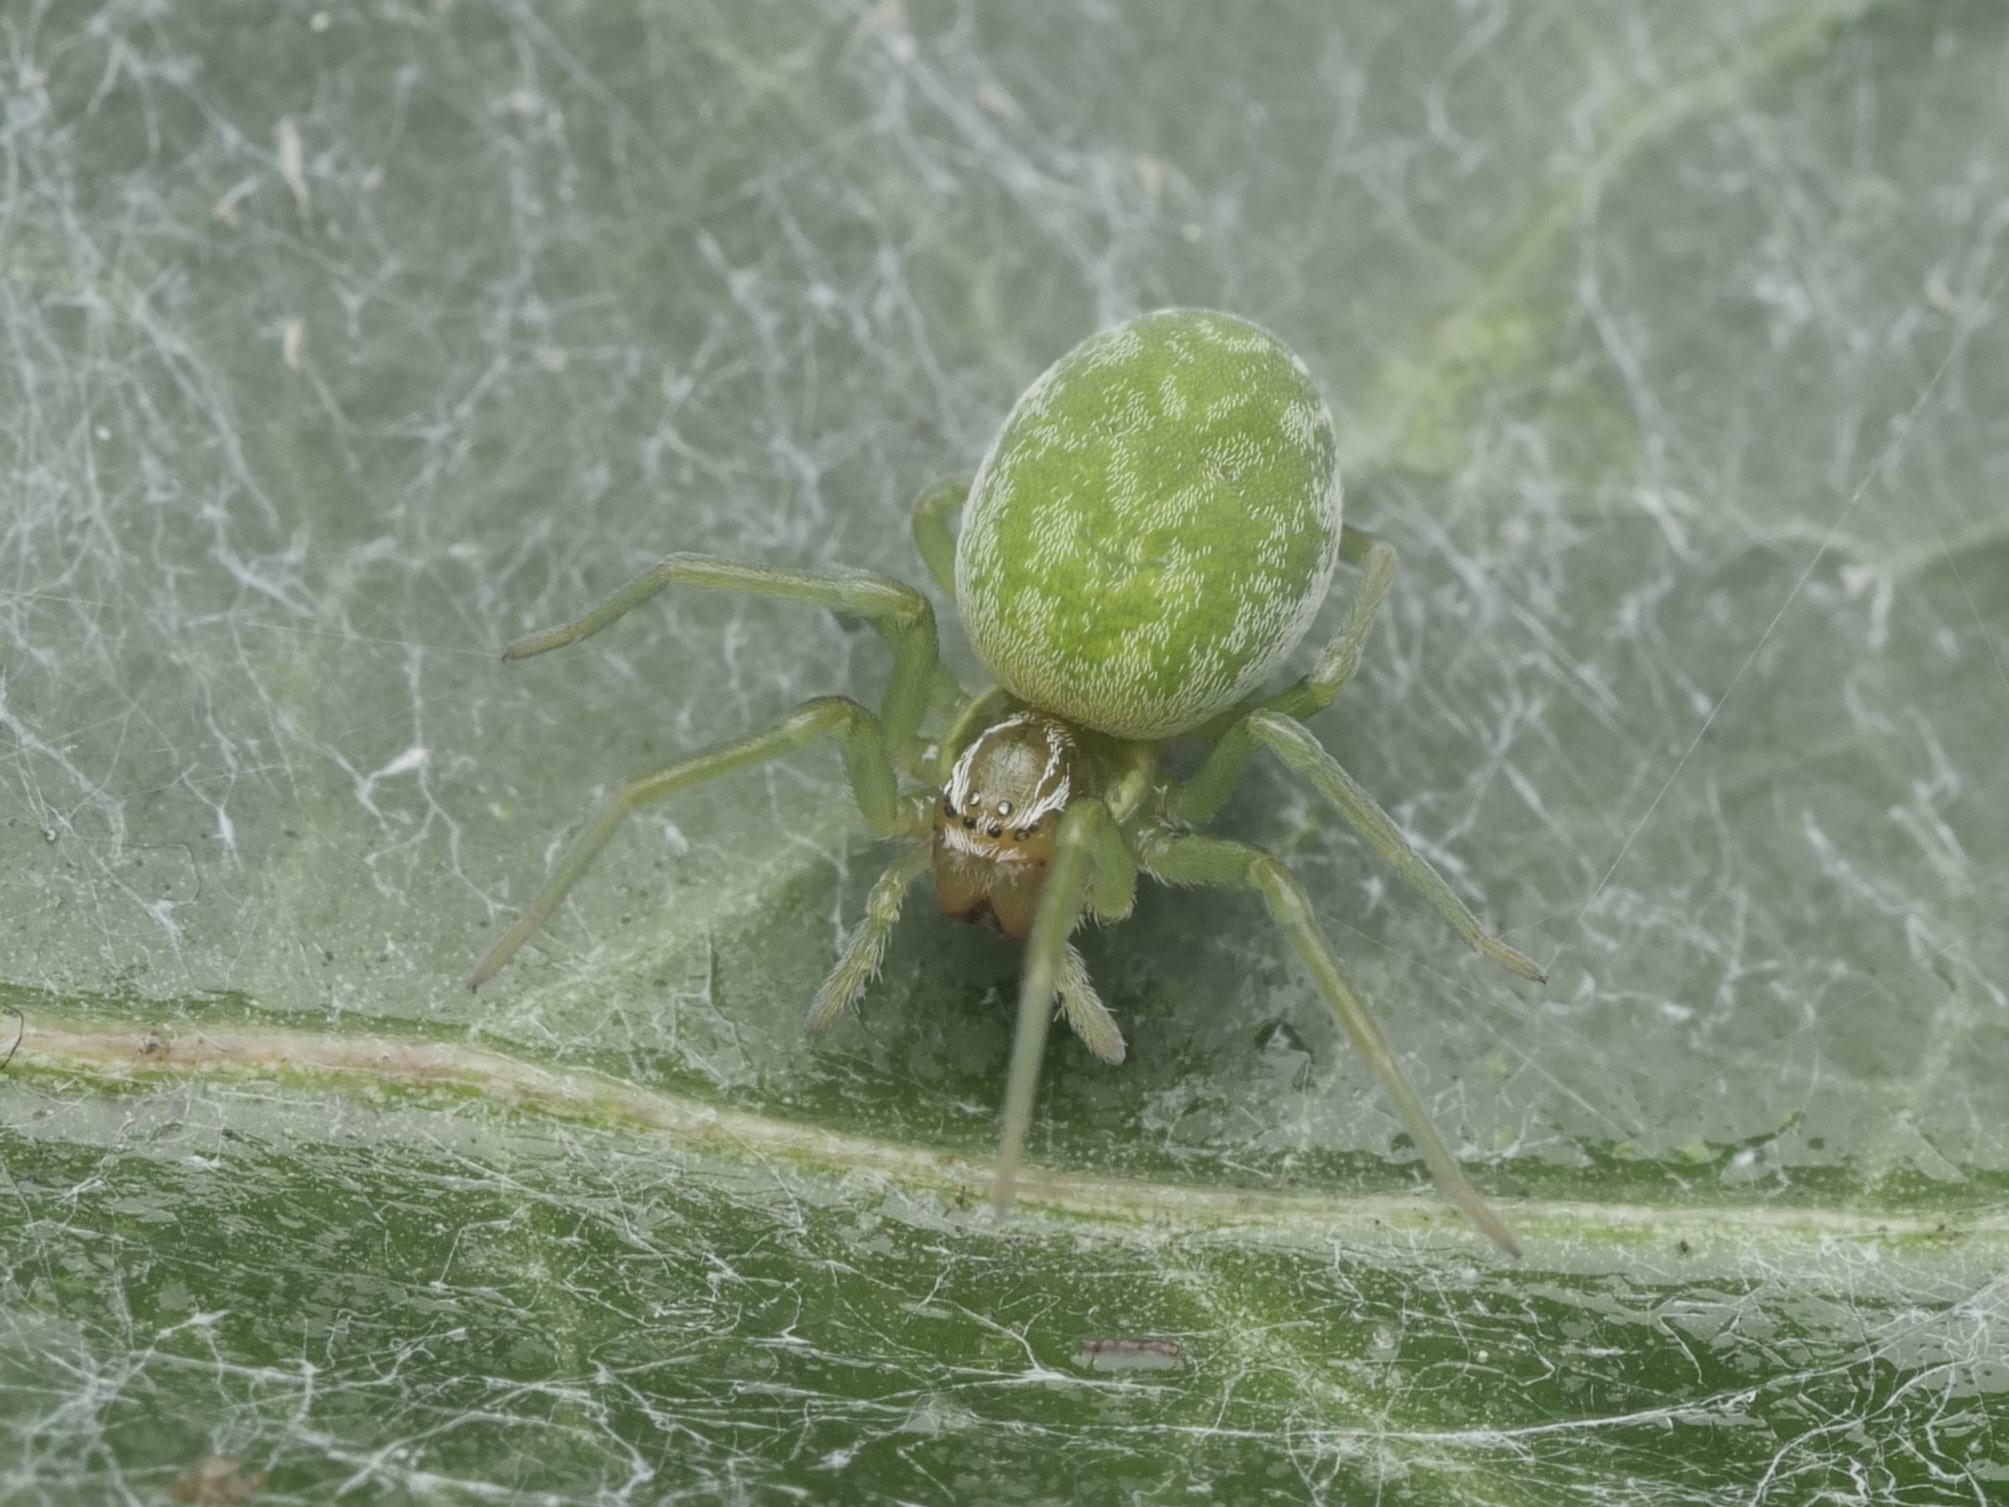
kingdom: Animalia
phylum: Arthropoda
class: Arachnida
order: Araneae
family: Dictynidae
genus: Nigma
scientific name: Nigma walckenaeri
